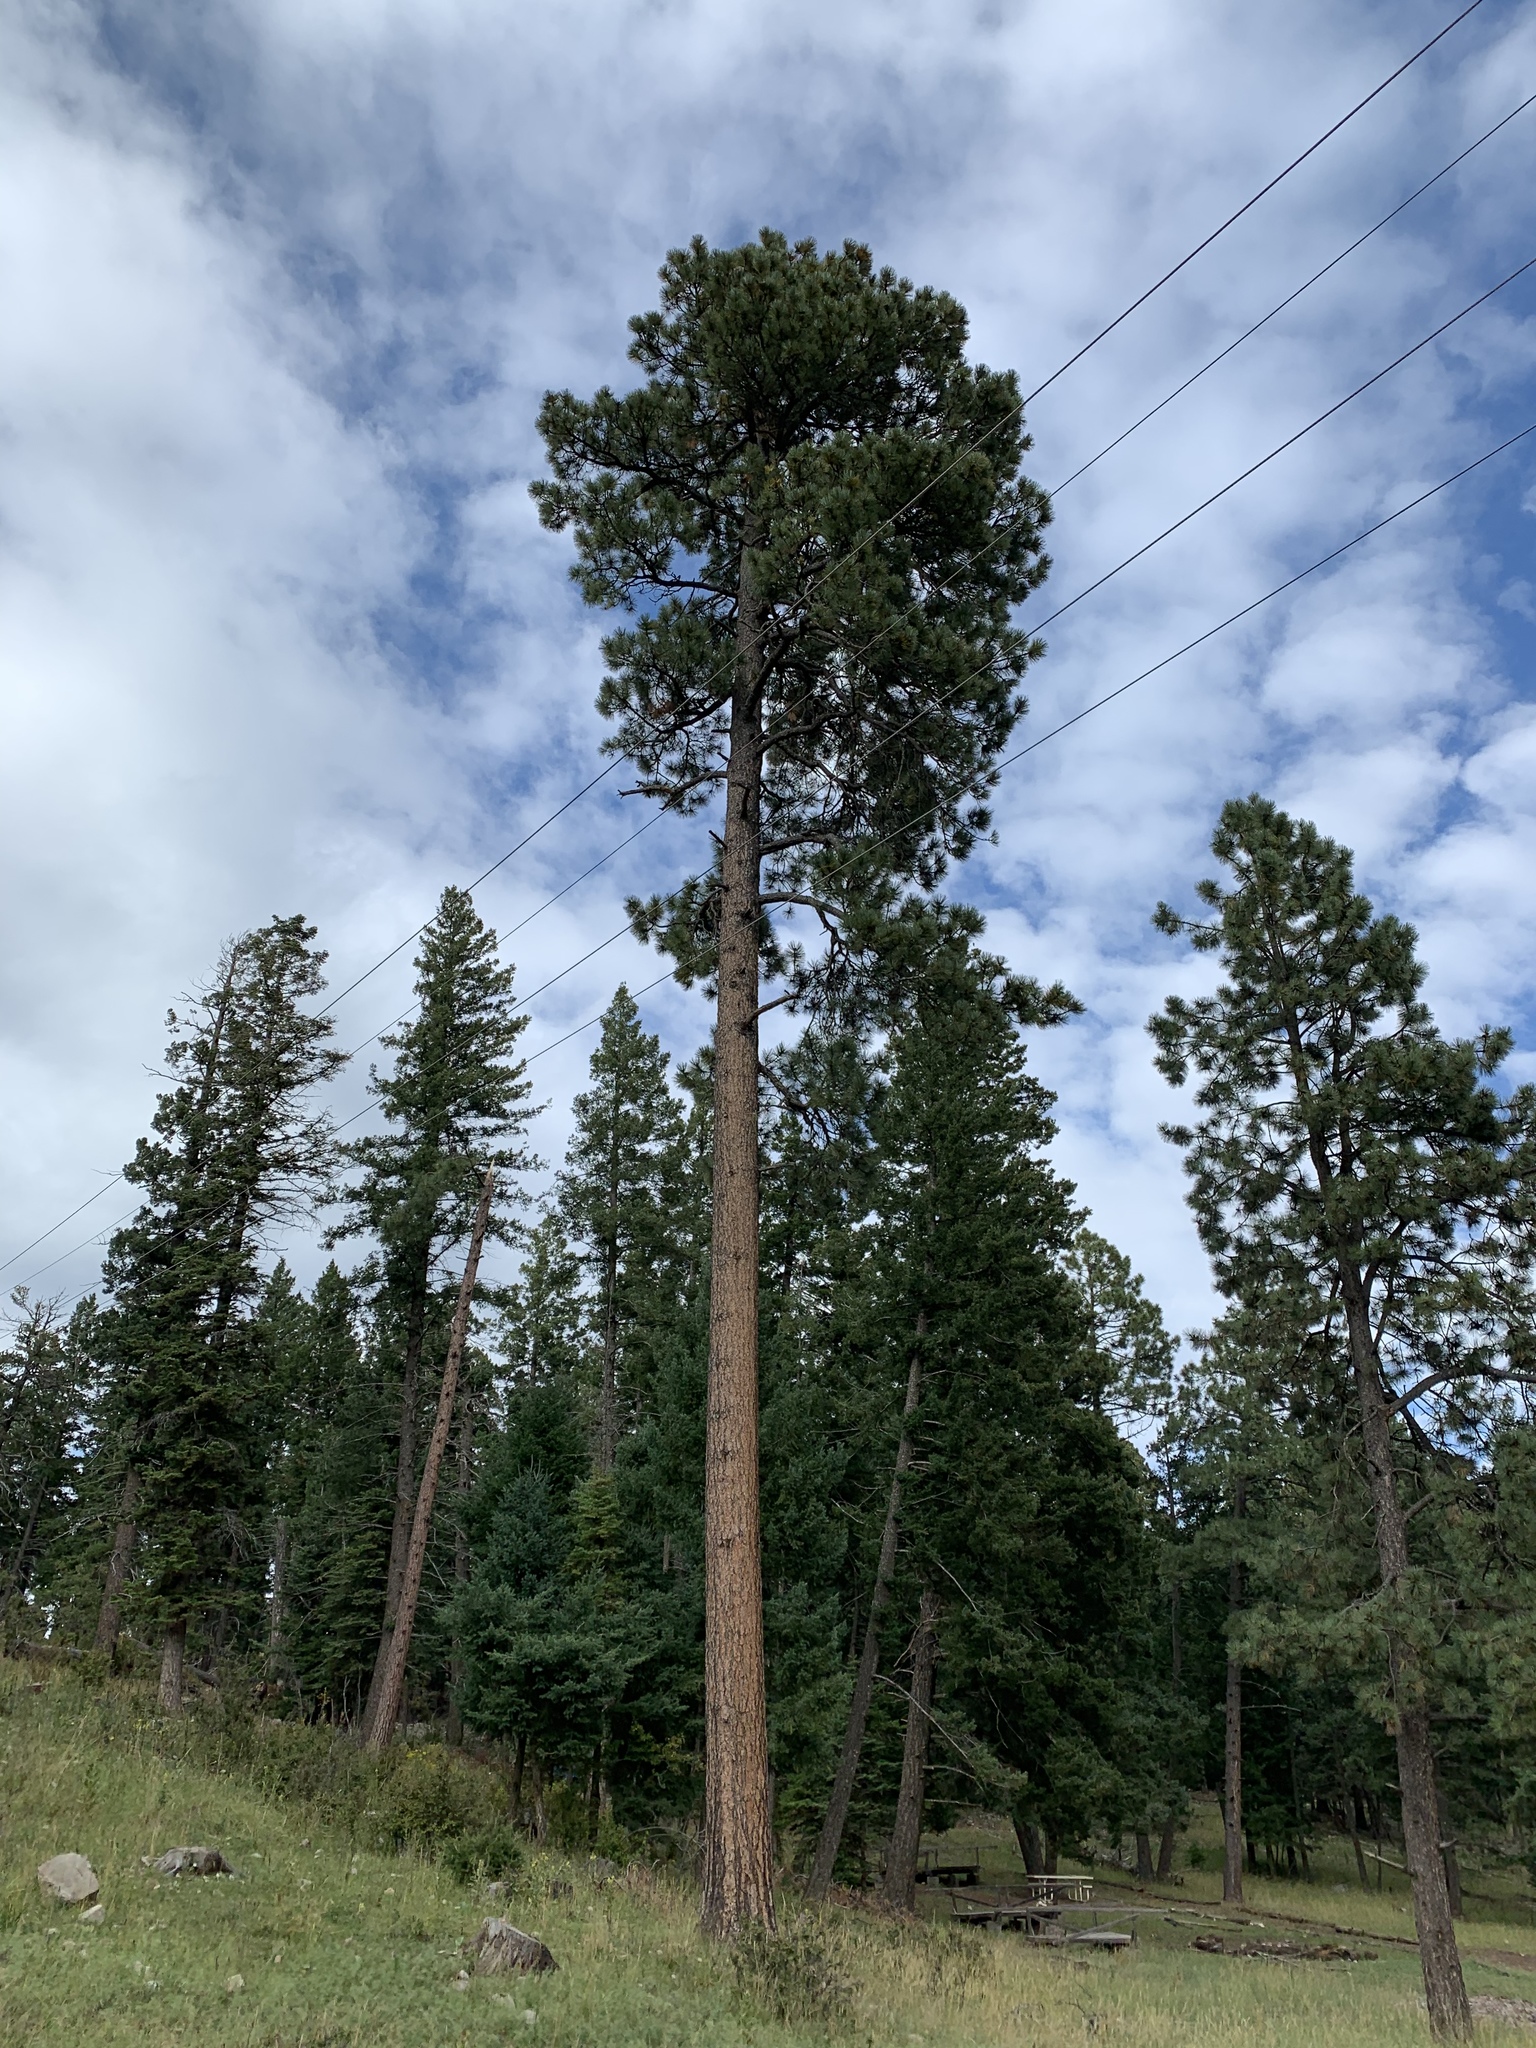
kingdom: Plantae
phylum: Tracheophyta
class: Pinopsida
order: Pinales
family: Pinaceae
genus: Pinus
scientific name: Pinus ponderosa
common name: Western yellow-pine
